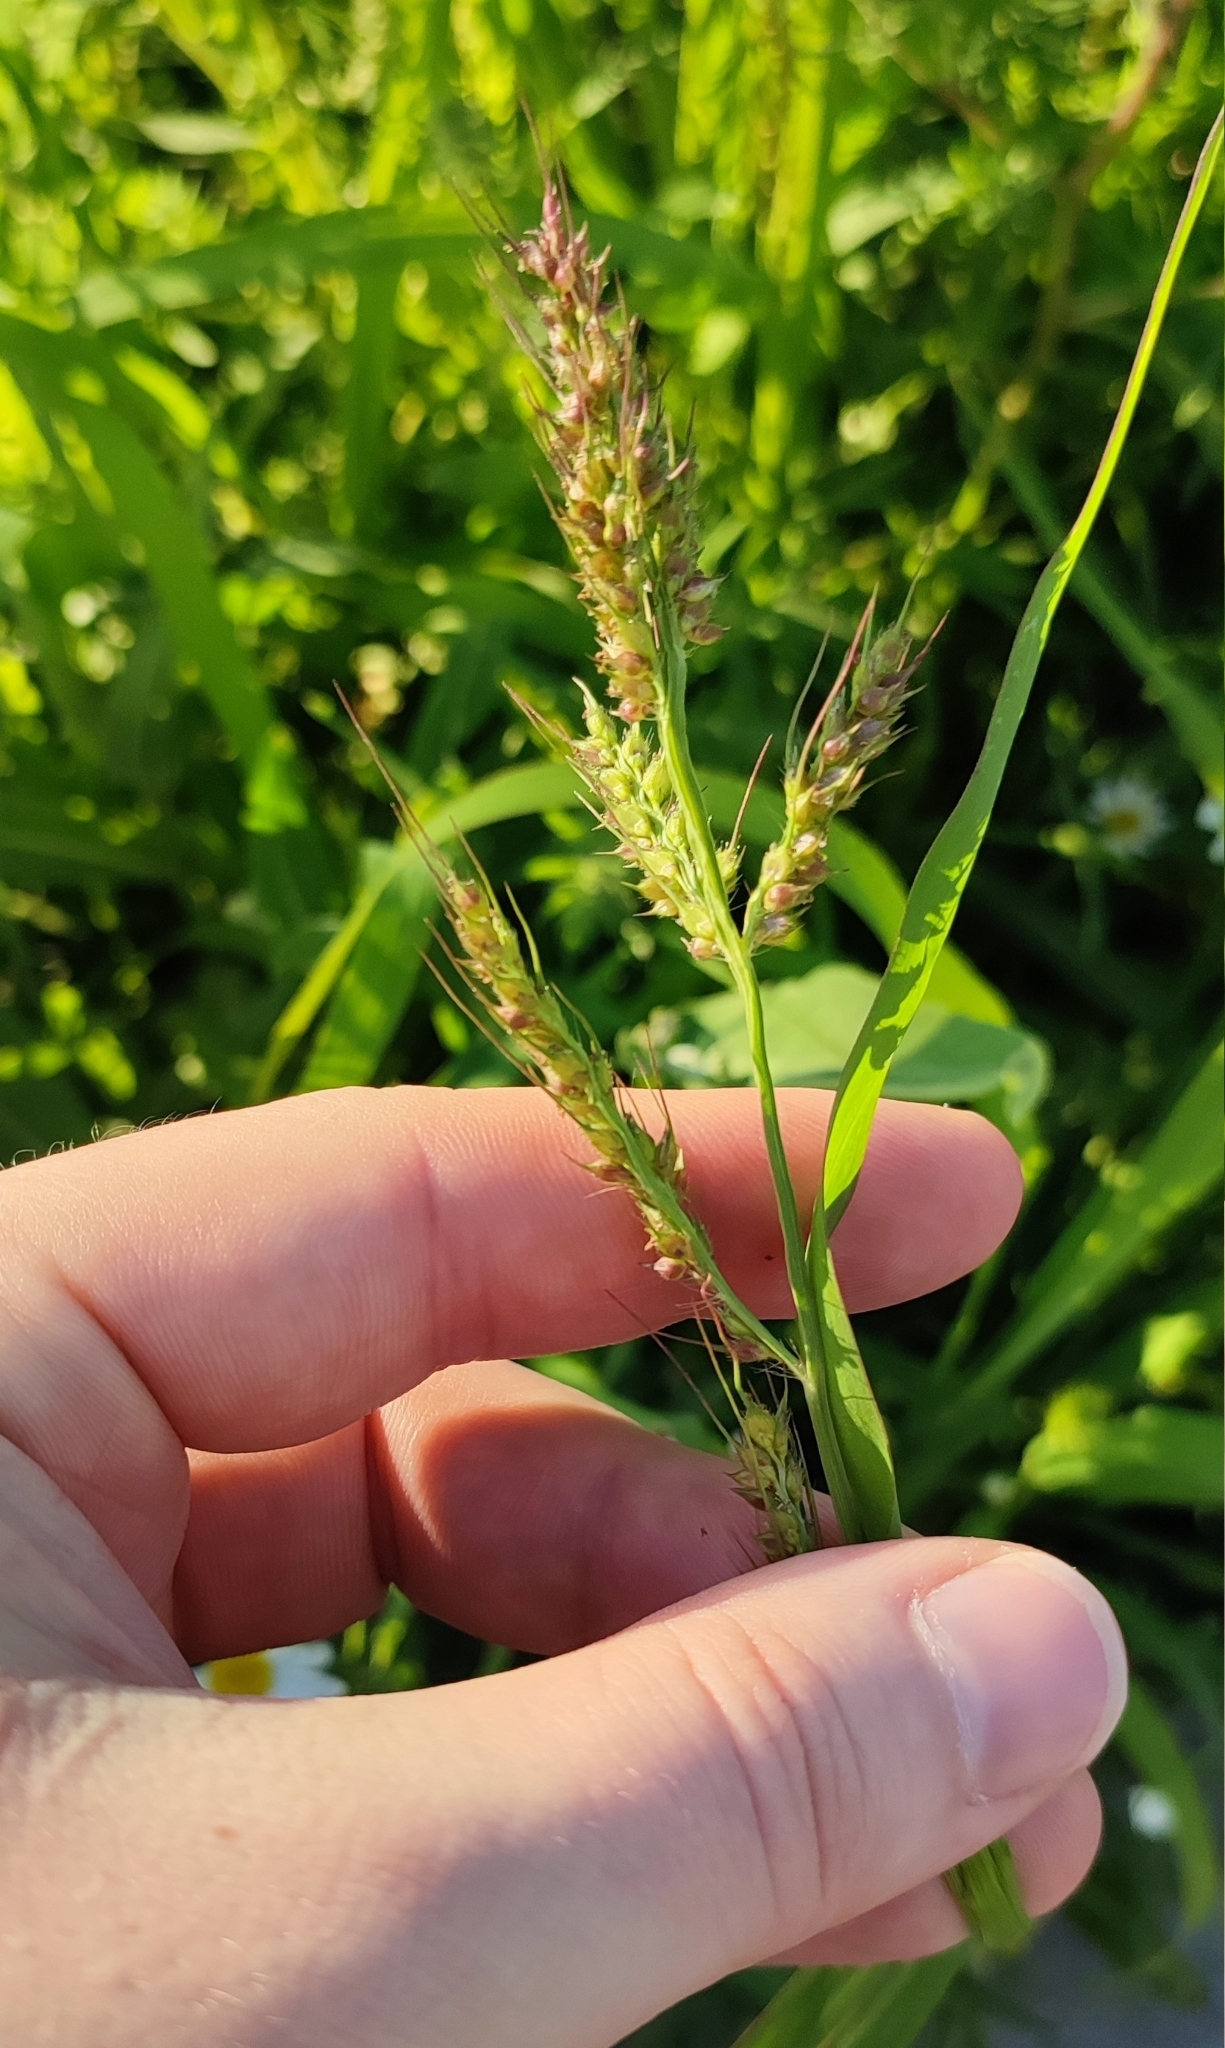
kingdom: Plantae
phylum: Tracheophyta
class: Liliopsida
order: Poales
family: Poaceae
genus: Echinochloa
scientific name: Echinochloa crus-galli
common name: Cockspur
